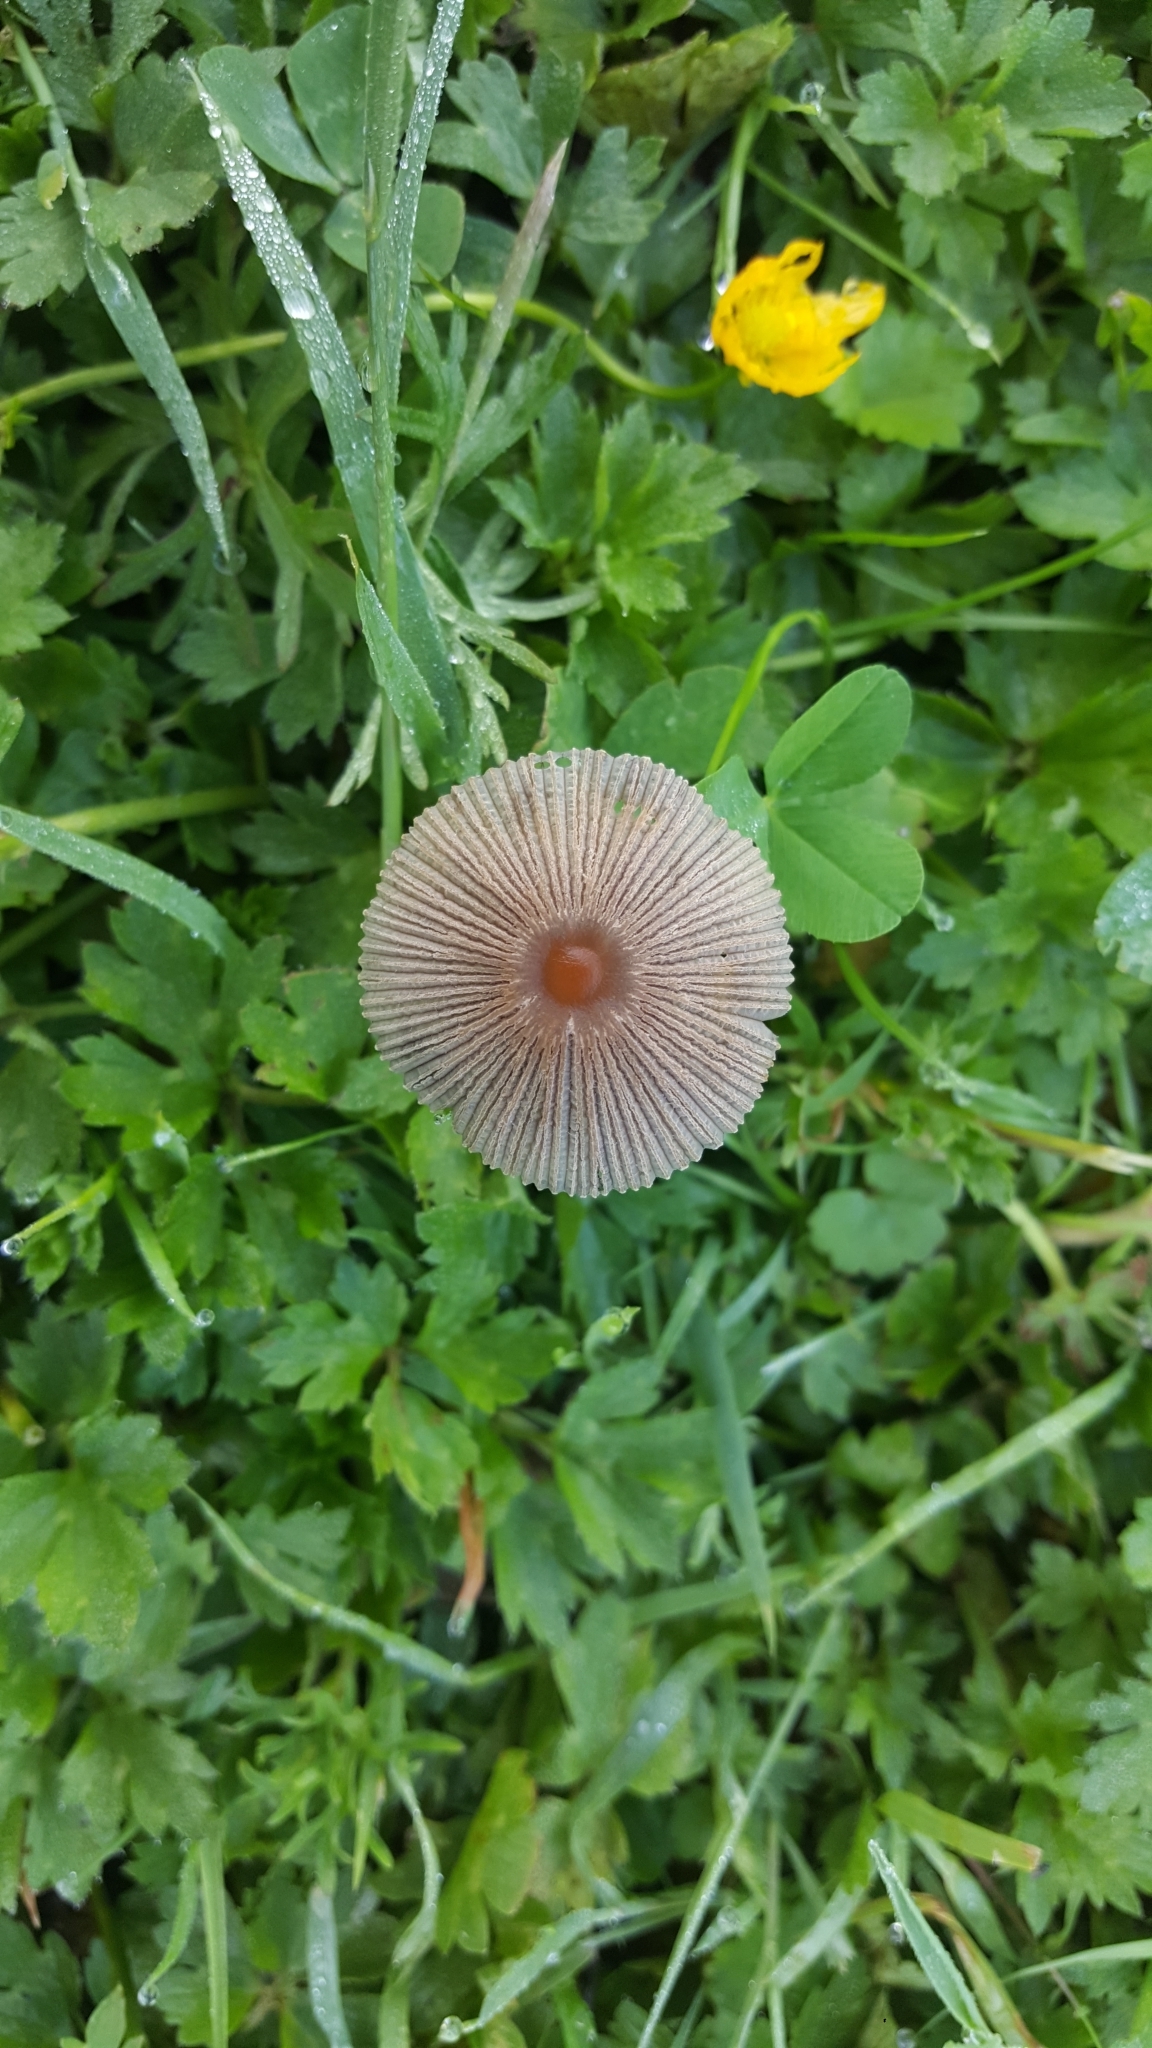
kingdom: Fungi
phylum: Basidiomycota
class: Agaricomycetes
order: Agaricales
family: Psathyrellaceae
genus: Parasola
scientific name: Parasola plicatilis
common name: Pleated inkcap
